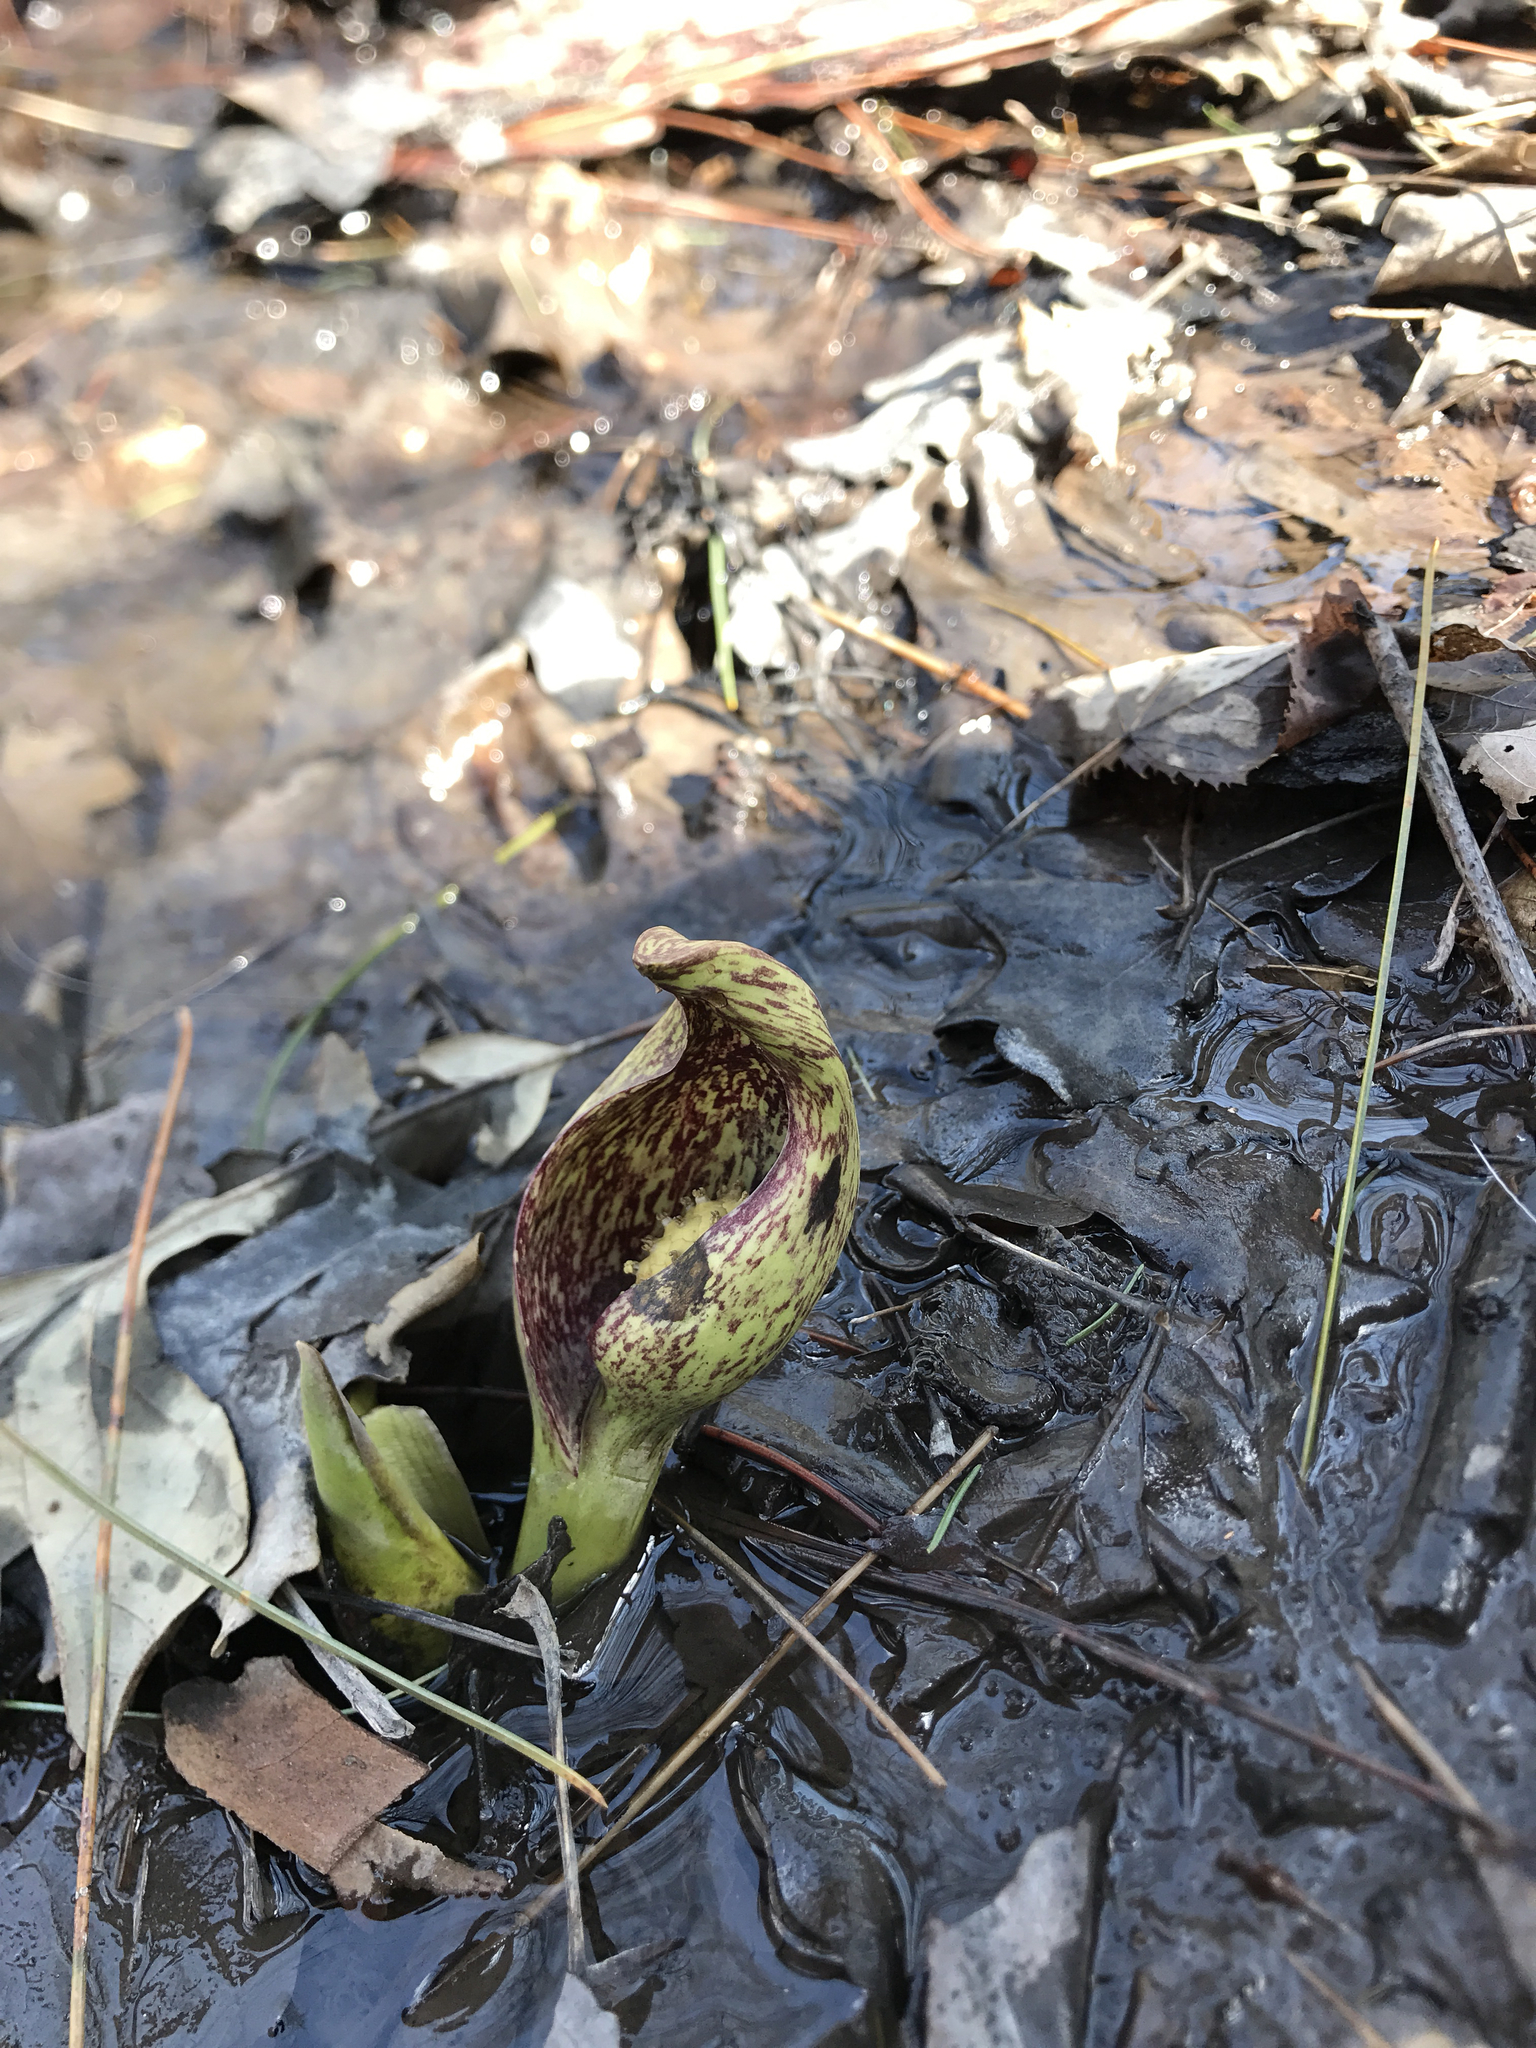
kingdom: Plantae
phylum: Tracheophyta
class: Liliopsida
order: Alismatales
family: Araceae
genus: Symplocarpus
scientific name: Symplocarpus foetidus
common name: Eastern skunk cabbage
